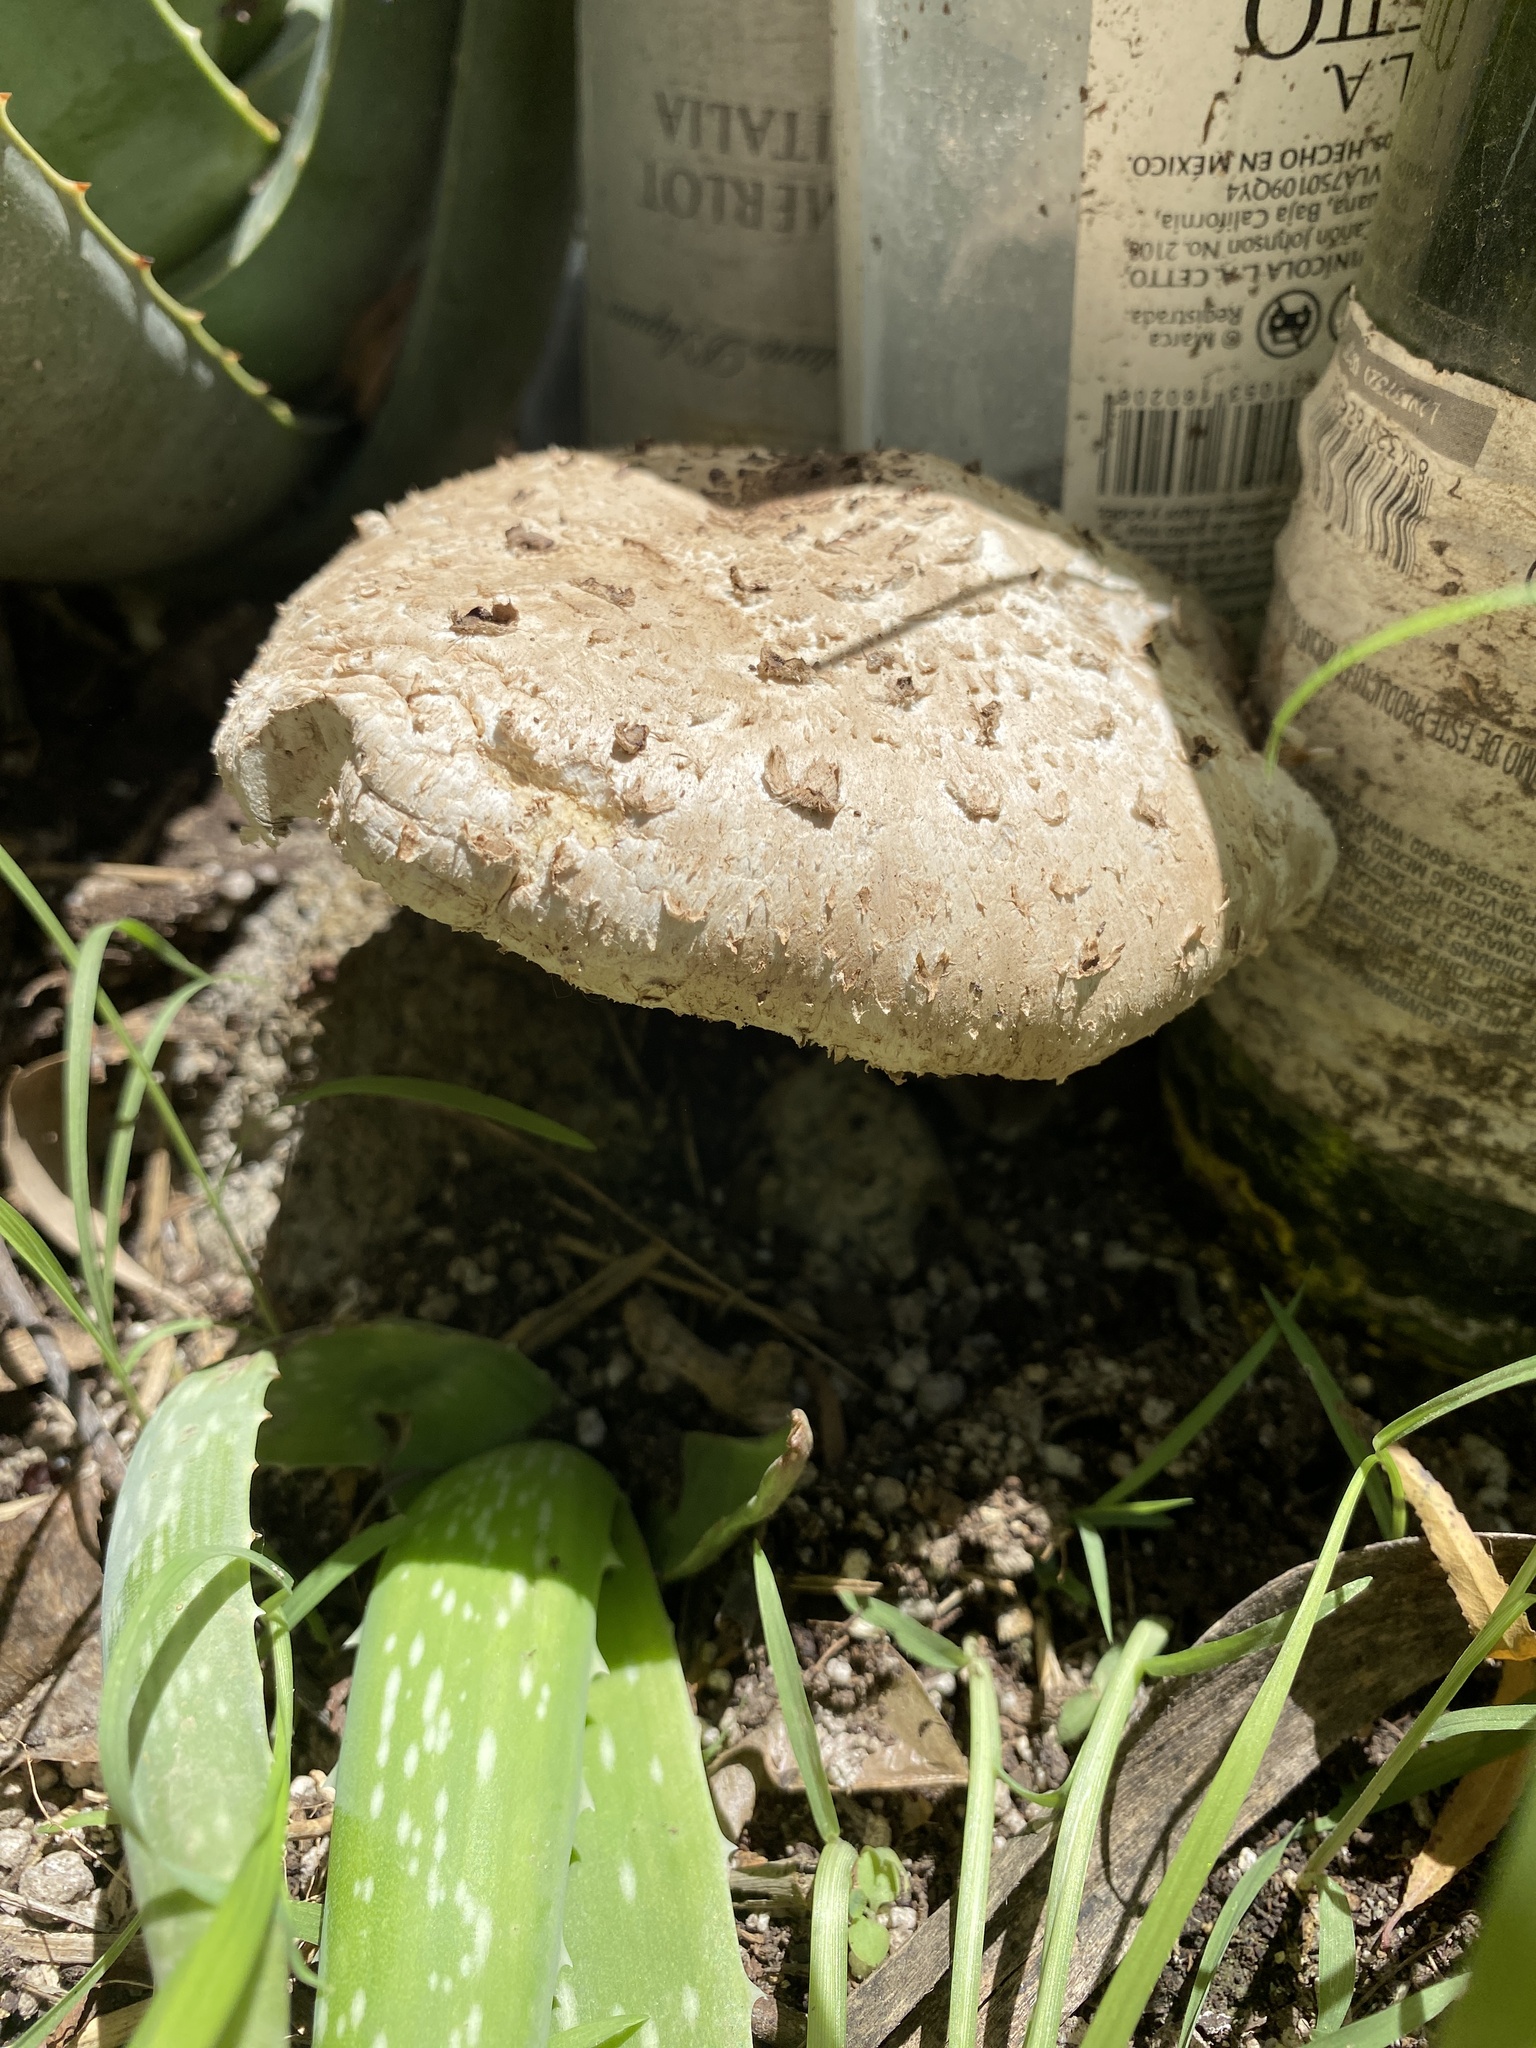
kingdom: Fungi
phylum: Basidiomycota
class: Agaricomycetes
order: Agaricales
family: Agaricaceae
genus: Chlorophyllum
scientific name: Chlorophyllum molybdites
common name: False parasol
